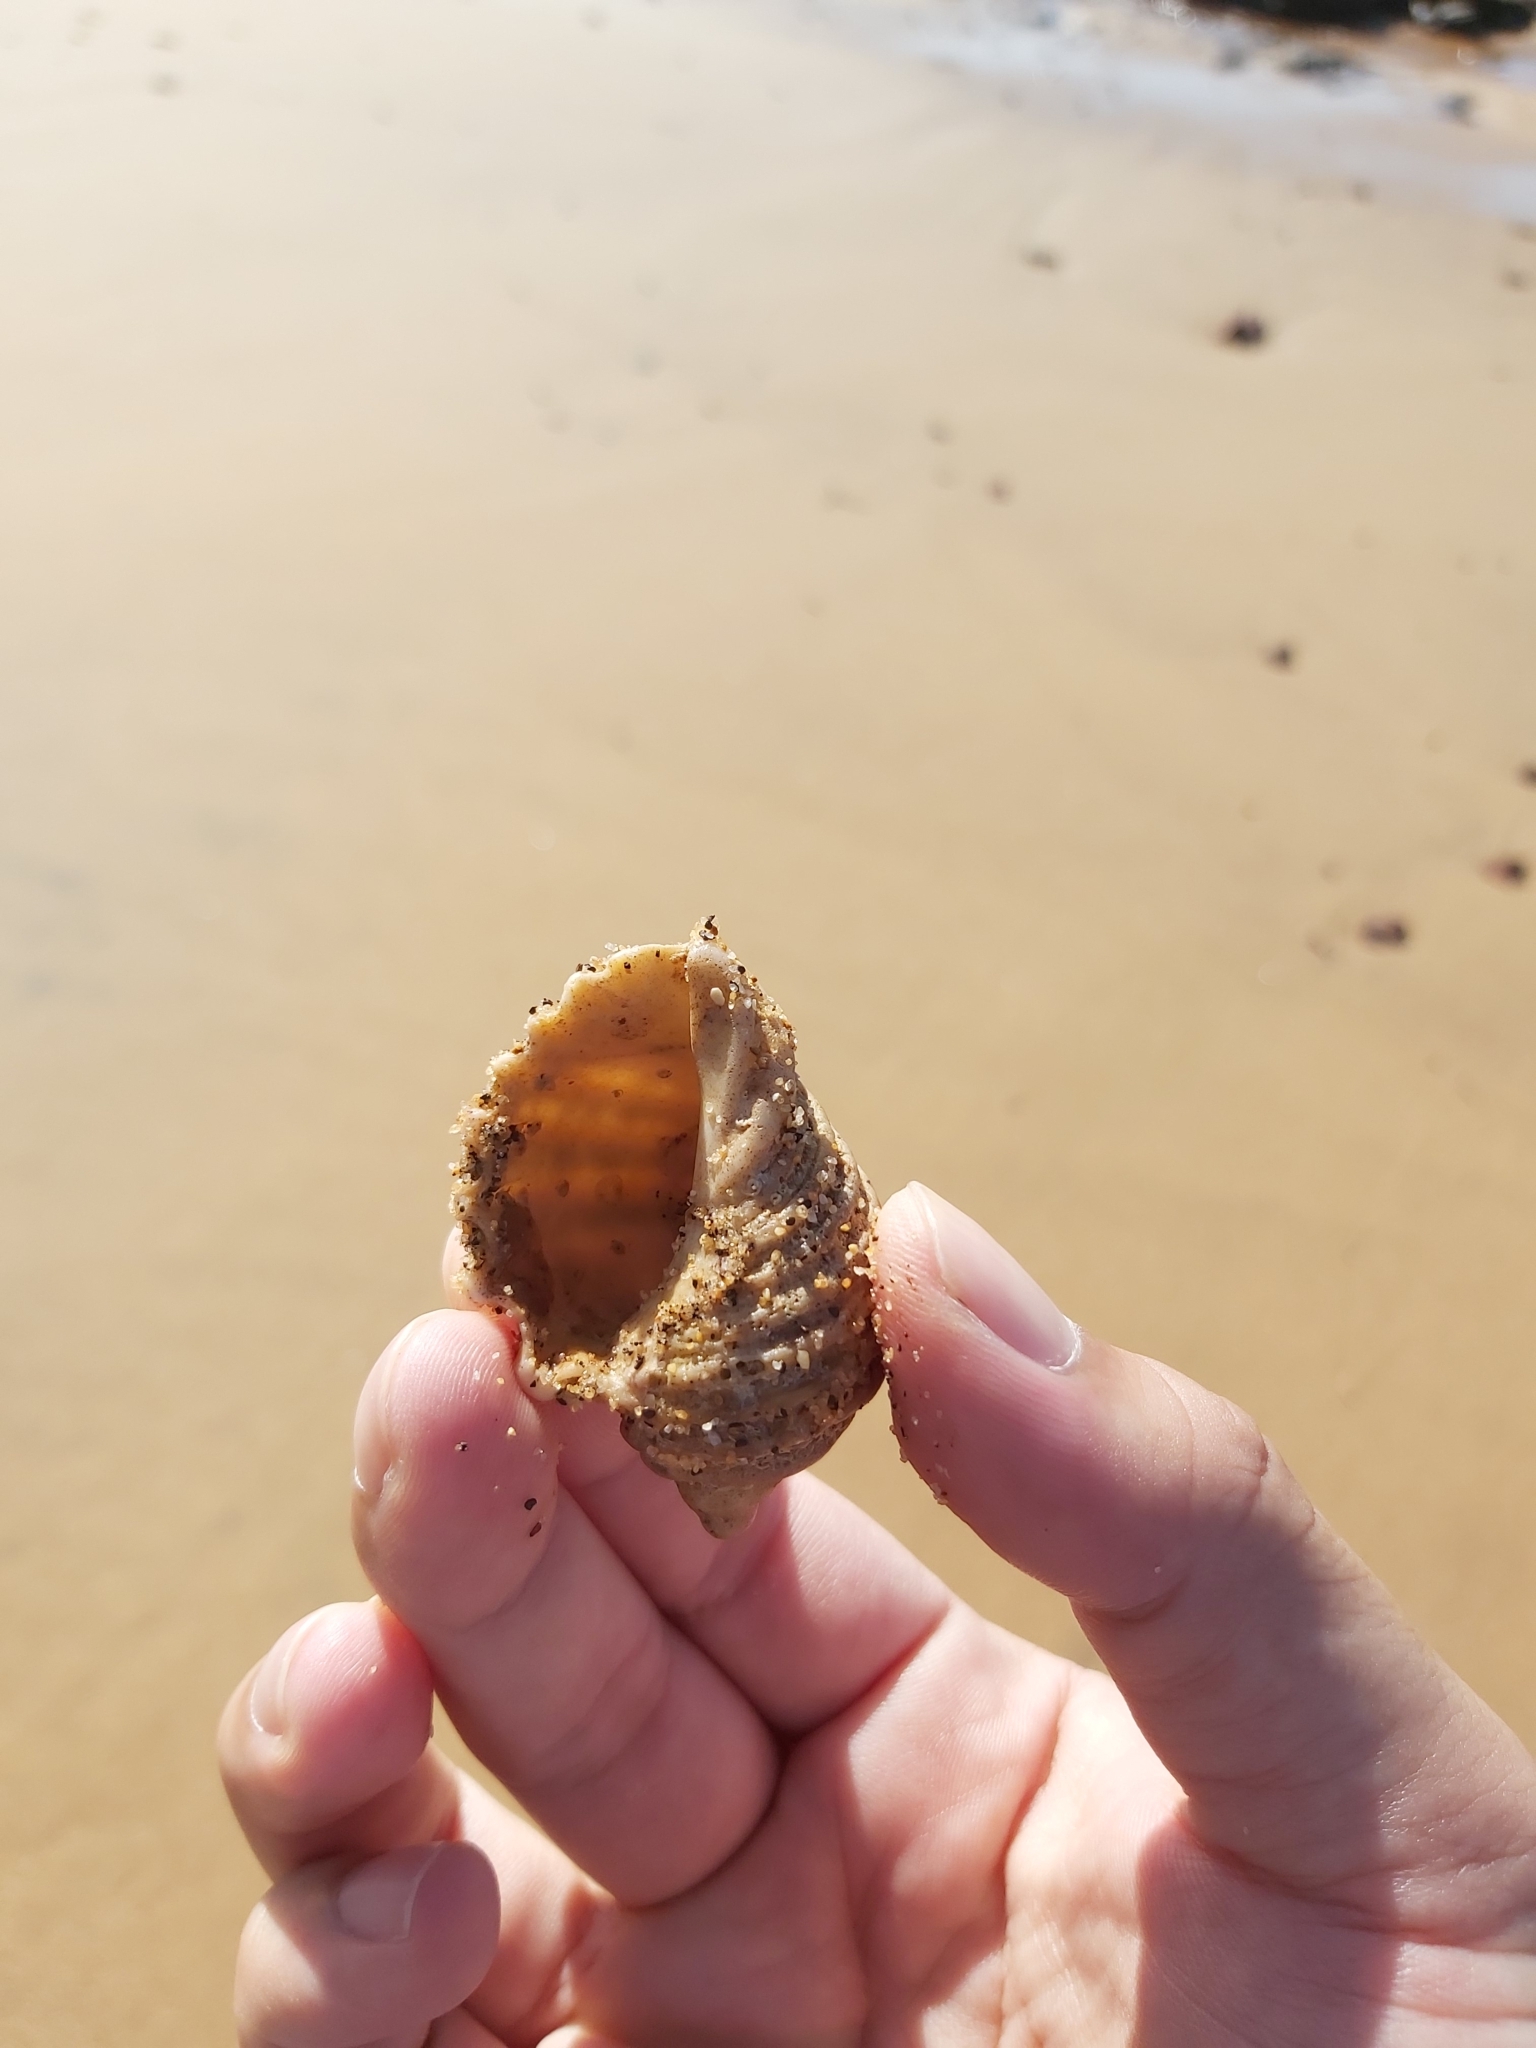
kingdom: Animalia
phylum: Mollusca
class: Gastropoda
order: Neogastropoda
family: Muricidae
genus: Dicathais
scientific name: Dicathais orbita
